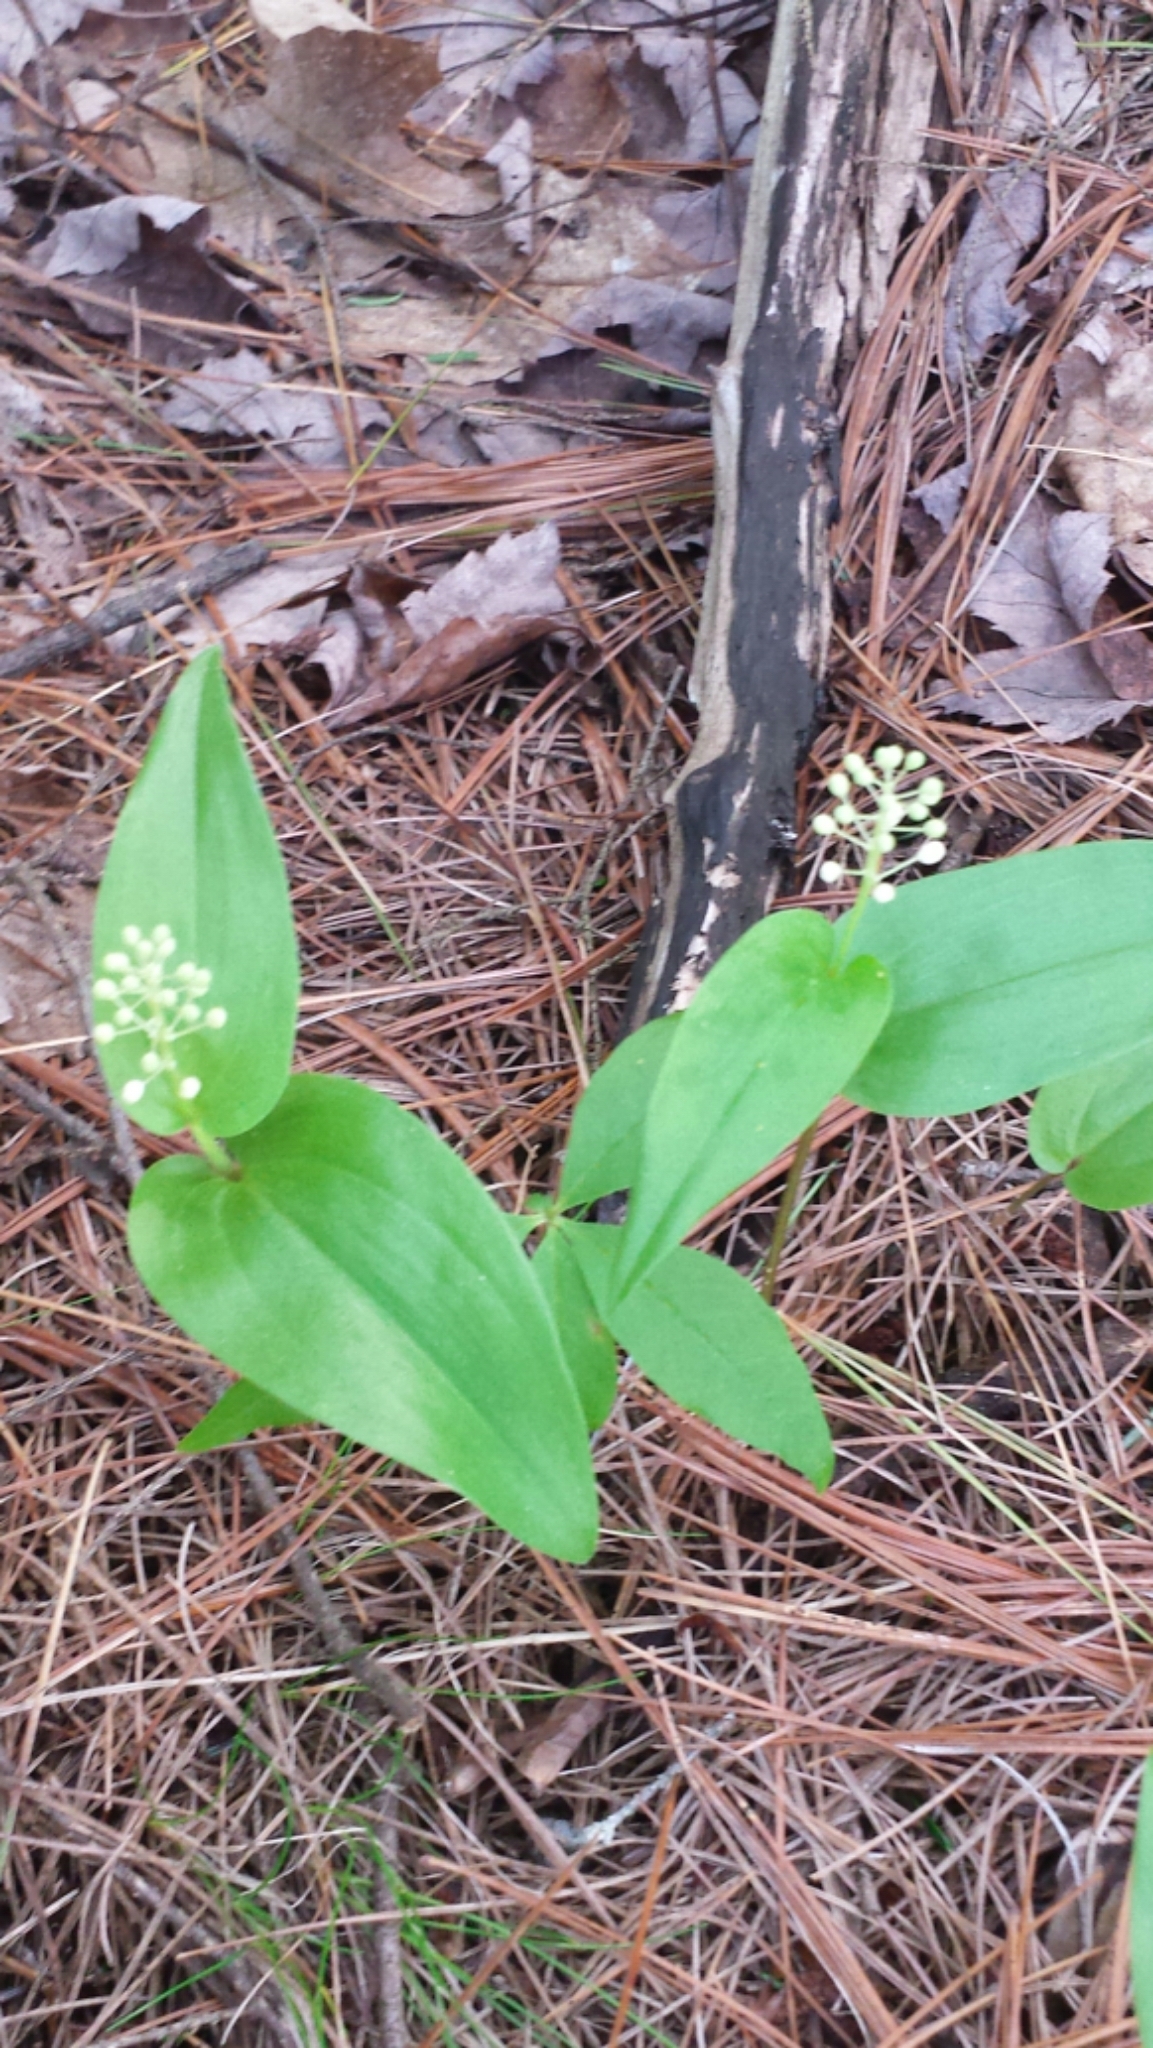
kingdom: Plantae
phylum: Tracheophyta
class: Liliopsida
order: Asparagales
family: Asparagaceae
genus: Maianthemum
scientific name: Maianthemum canadense
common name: False lily-of-the-valley
